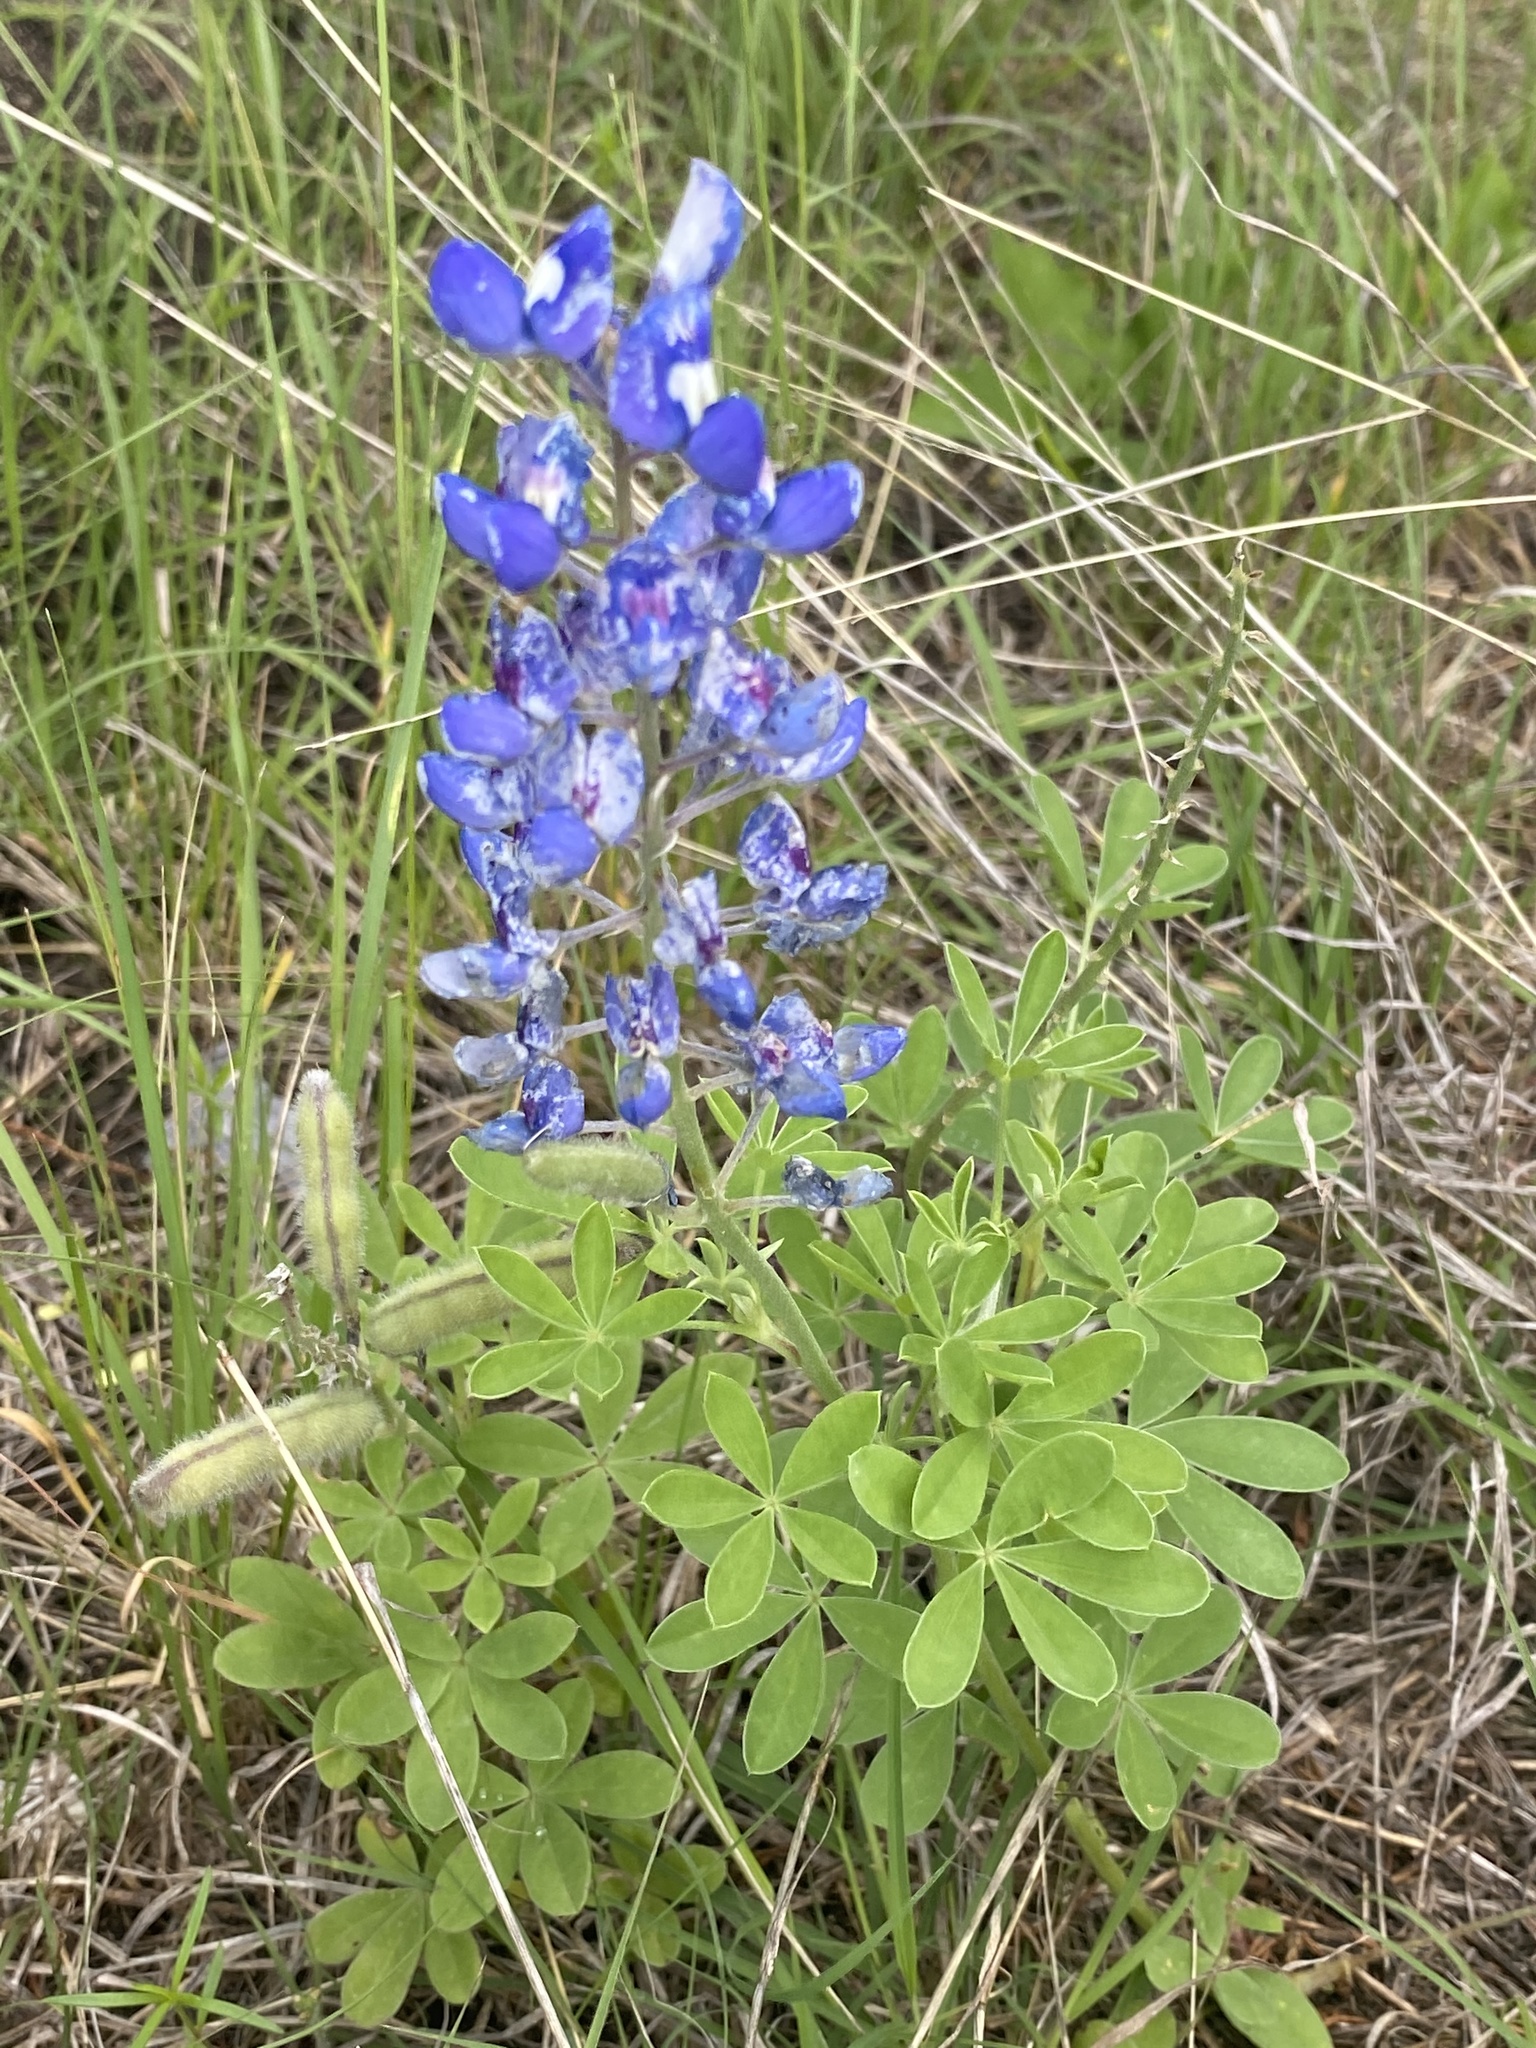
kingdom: Plantae
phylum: Tracheophyta
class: Magnoliopsida
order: Fabales
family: Fabaceae
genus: Lupinus
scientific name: Lupinus texensis
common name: Texas bluebonnet
